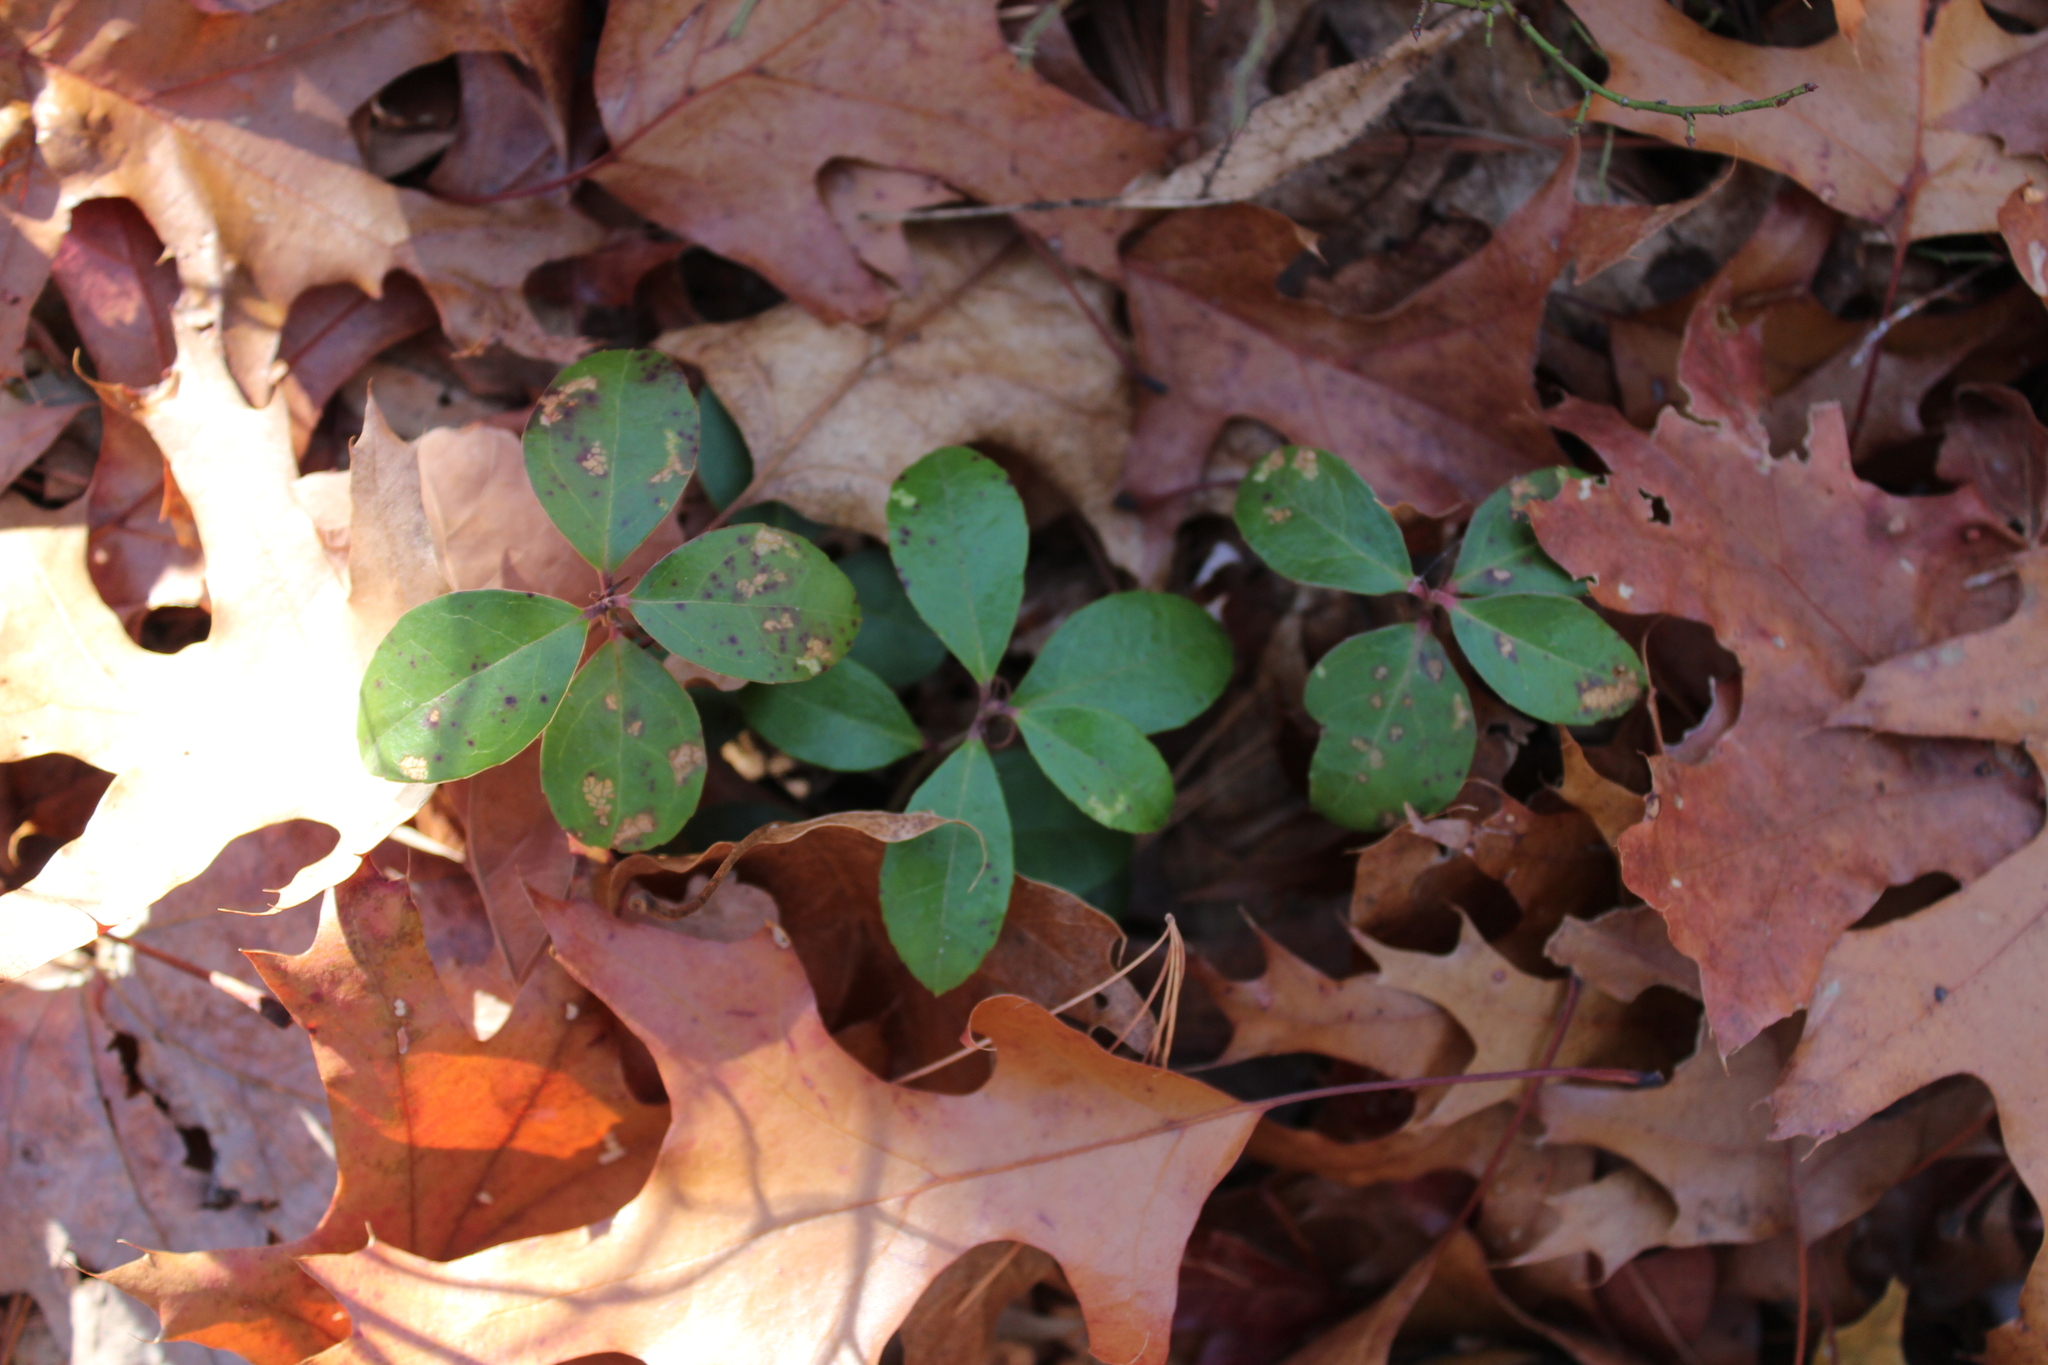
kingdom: Plantae
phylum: Tracheophyta
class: Magnoliopsida
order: Ericales
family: Ericaceae
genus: Gaultheria
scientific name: Gaultheria procumbens
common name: Checkerberry
